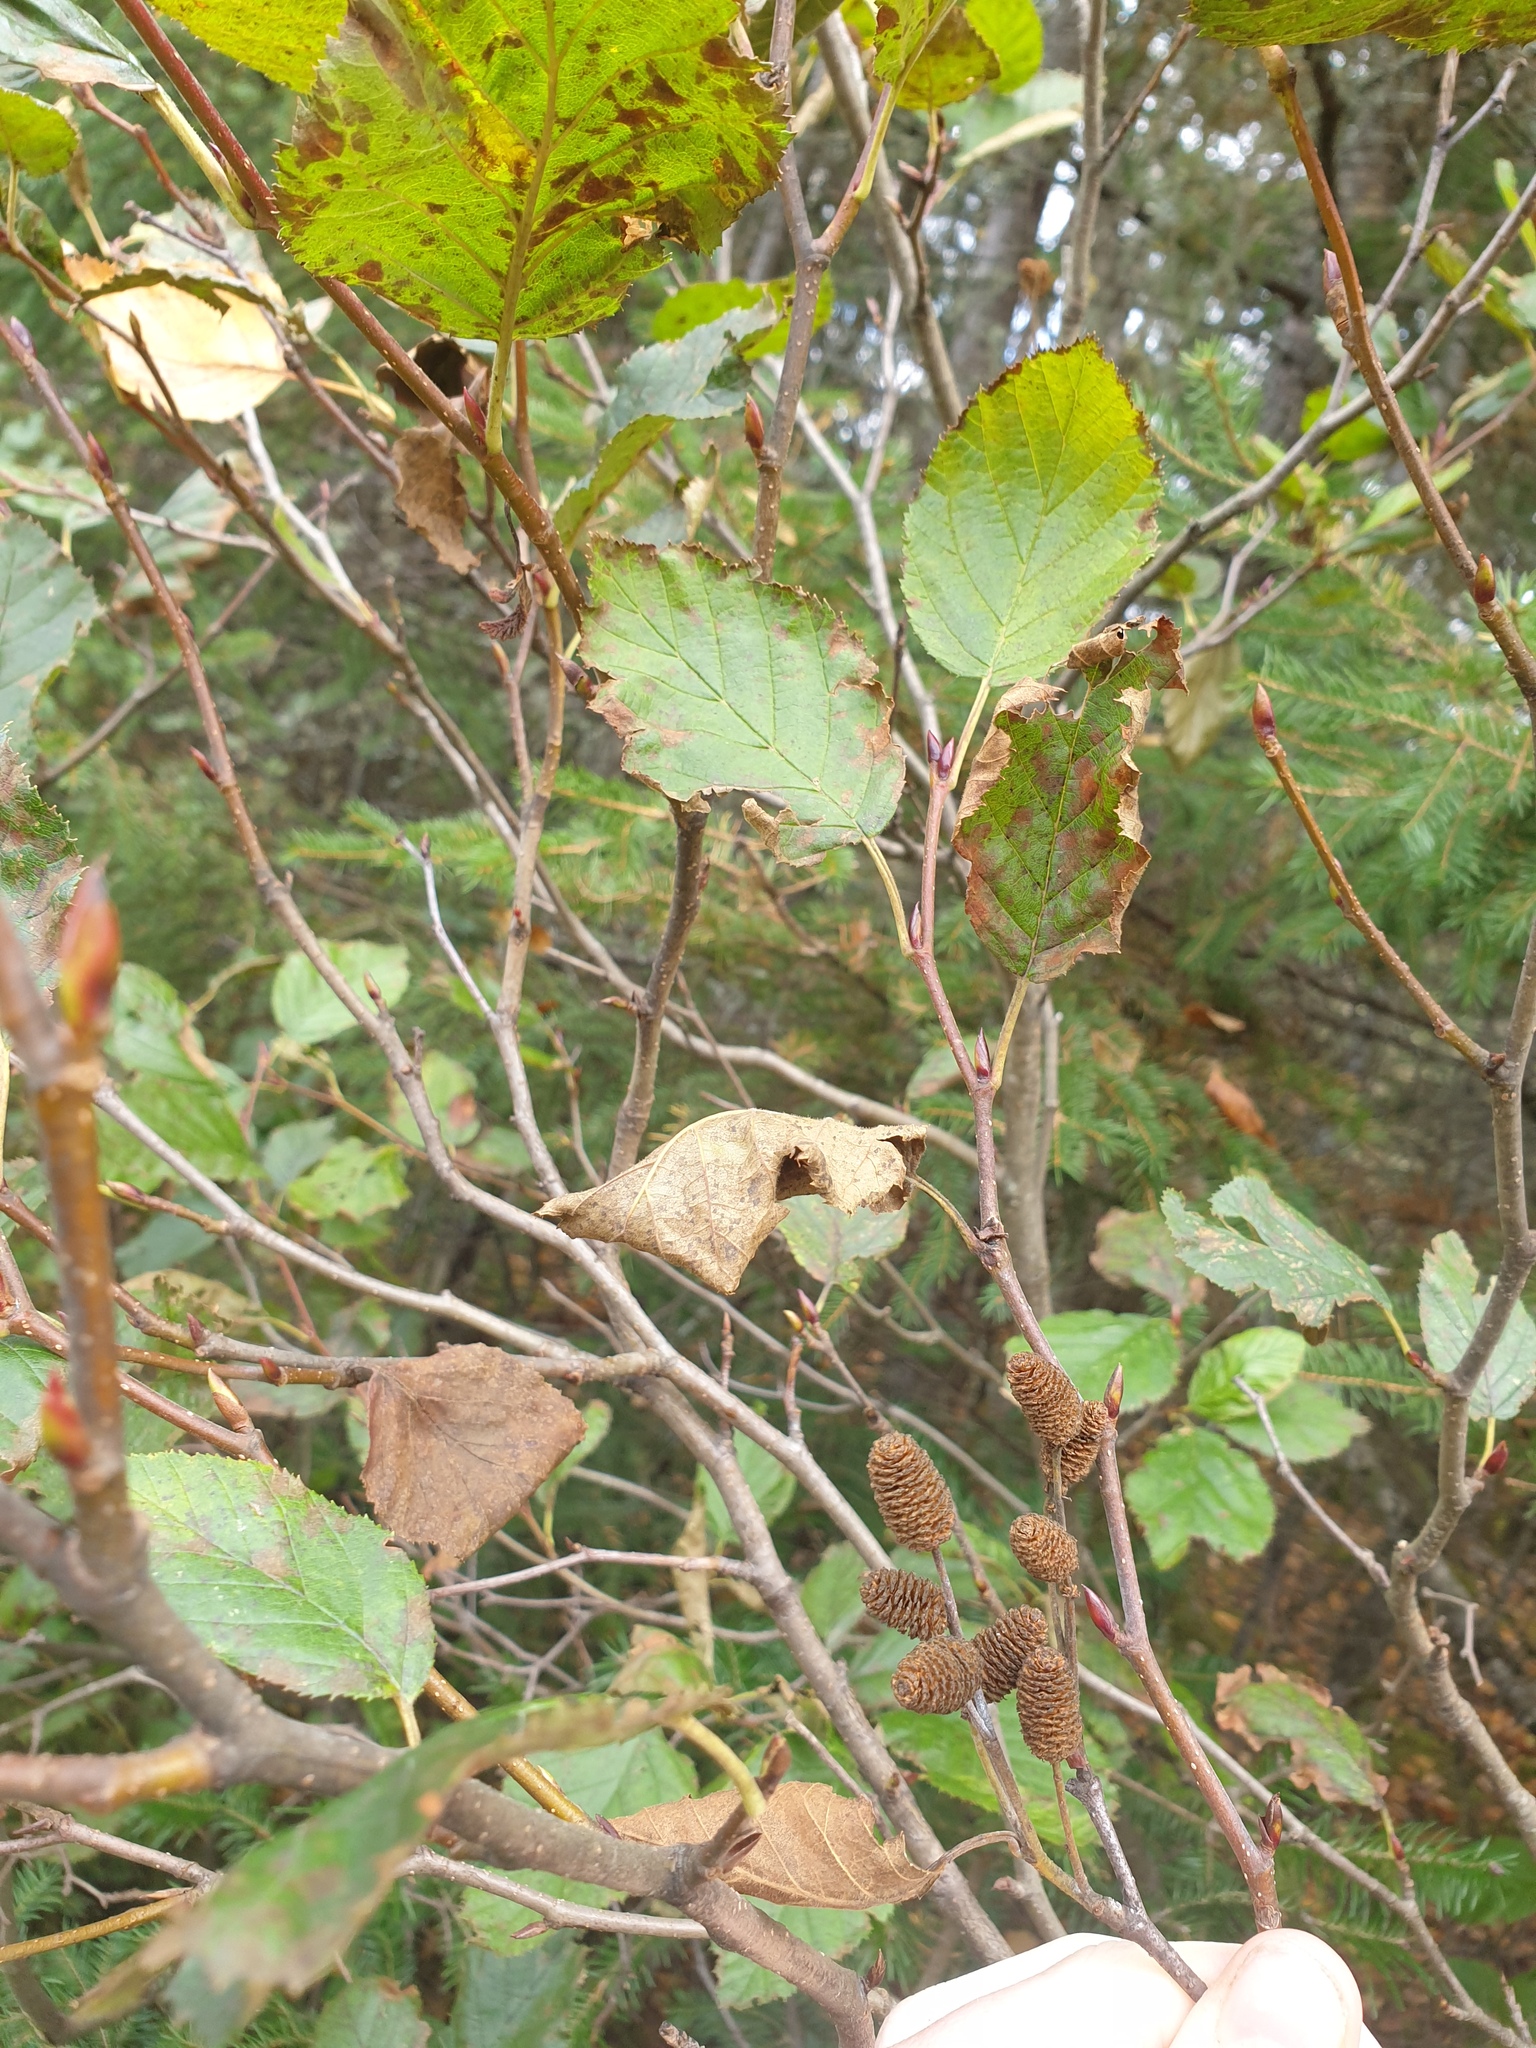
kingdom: Plantae
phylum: Tracheophyta
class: Magnoliopsida
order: Fagales
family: Betulaceae
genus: Alnus
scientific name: Alnus alnobetula
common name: Green alder
